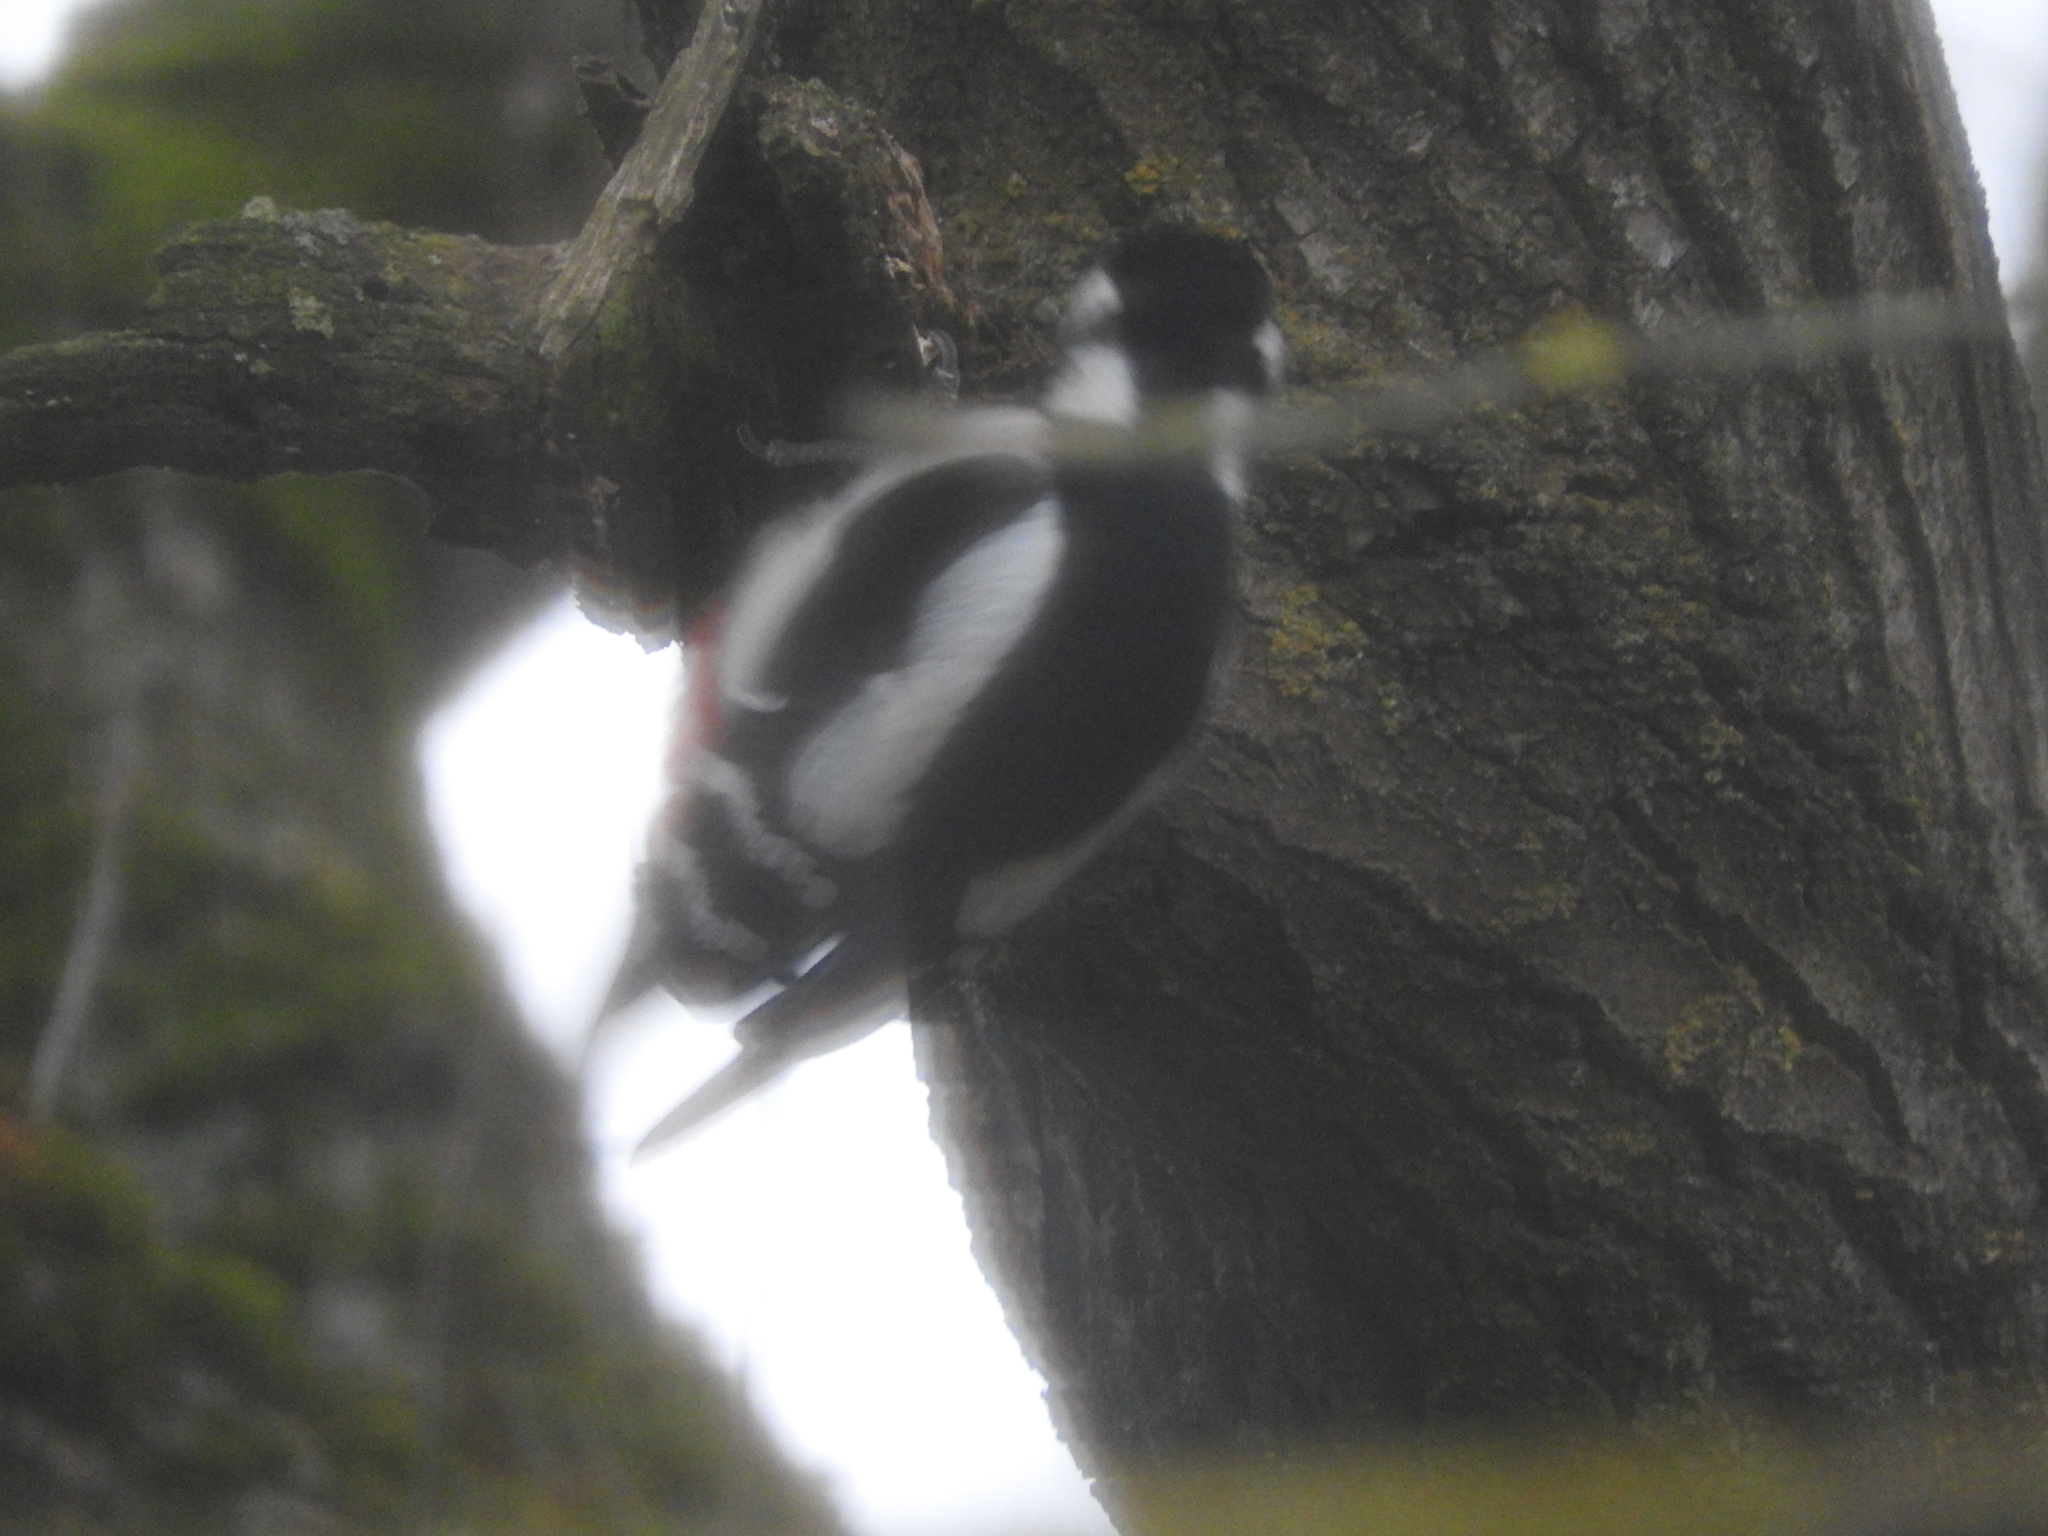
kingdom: Animalia
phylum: Chordata
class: Aves
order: Piciformes
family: Picidae
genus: Dendrocopos
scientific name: Dendrocopos major
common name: Great spotted woodpecker
